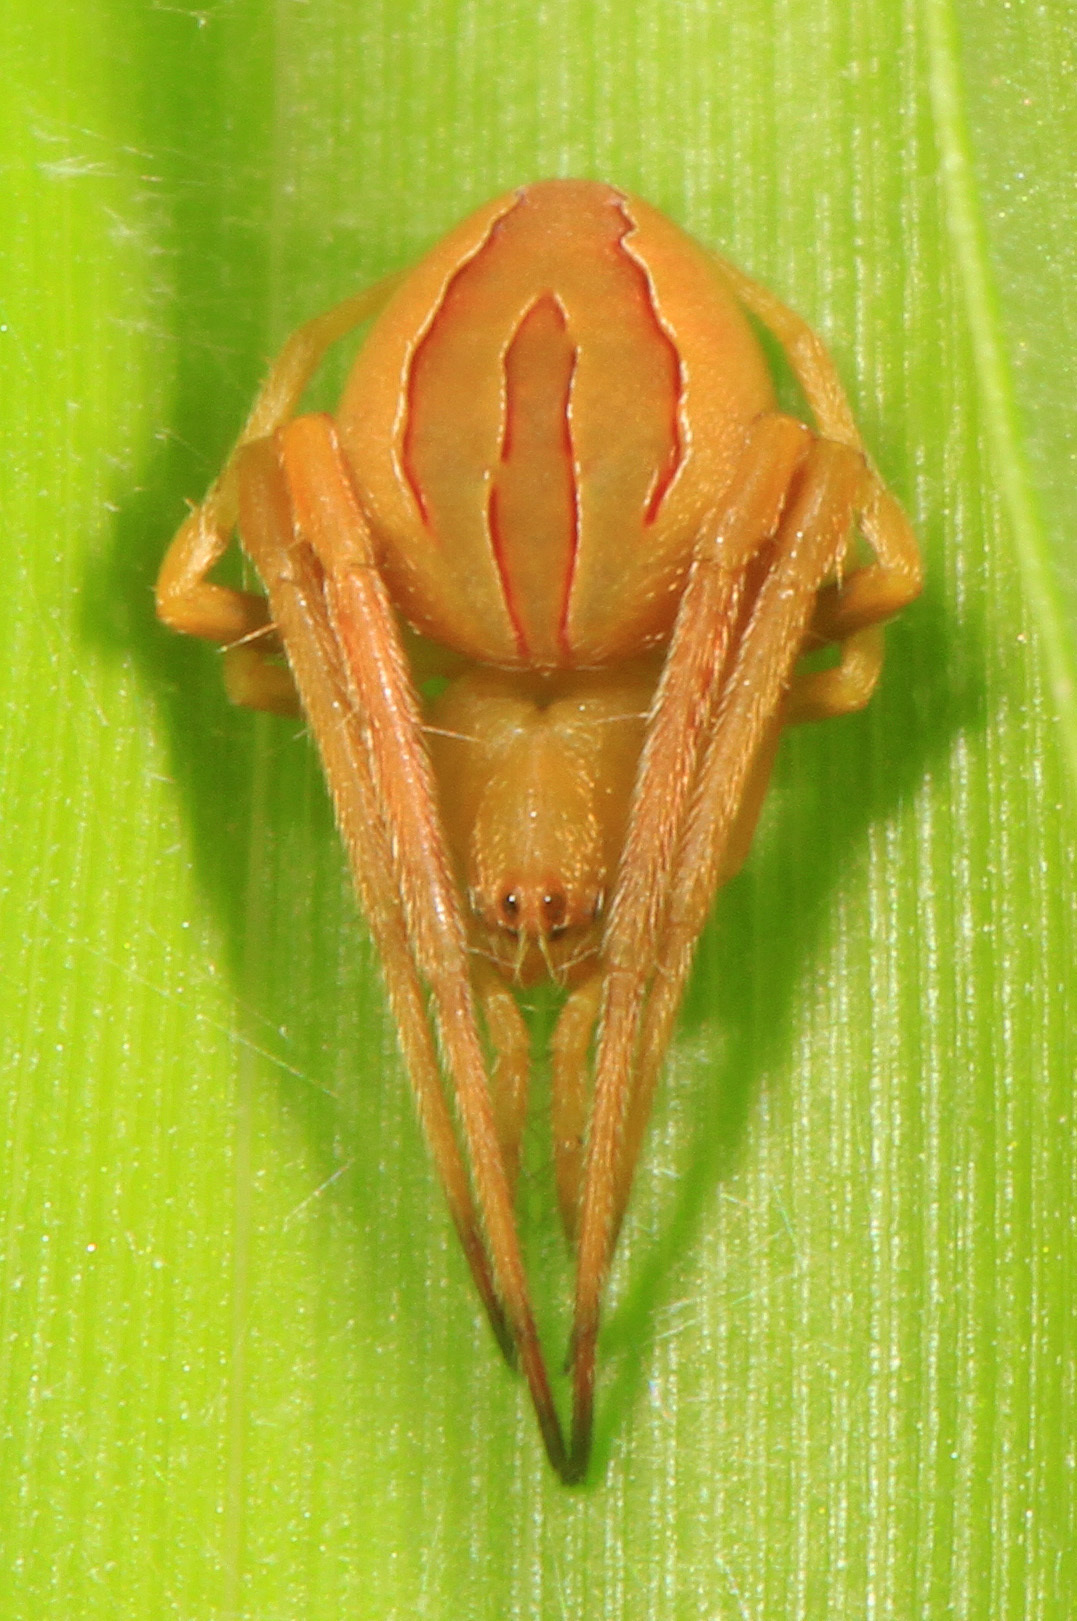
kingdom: Animalia
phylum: Arthropoda
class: Arachnida
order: Araneae
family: Araneidae
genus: Acacesia
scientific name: Acacesia hamata
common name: Orb weavers
